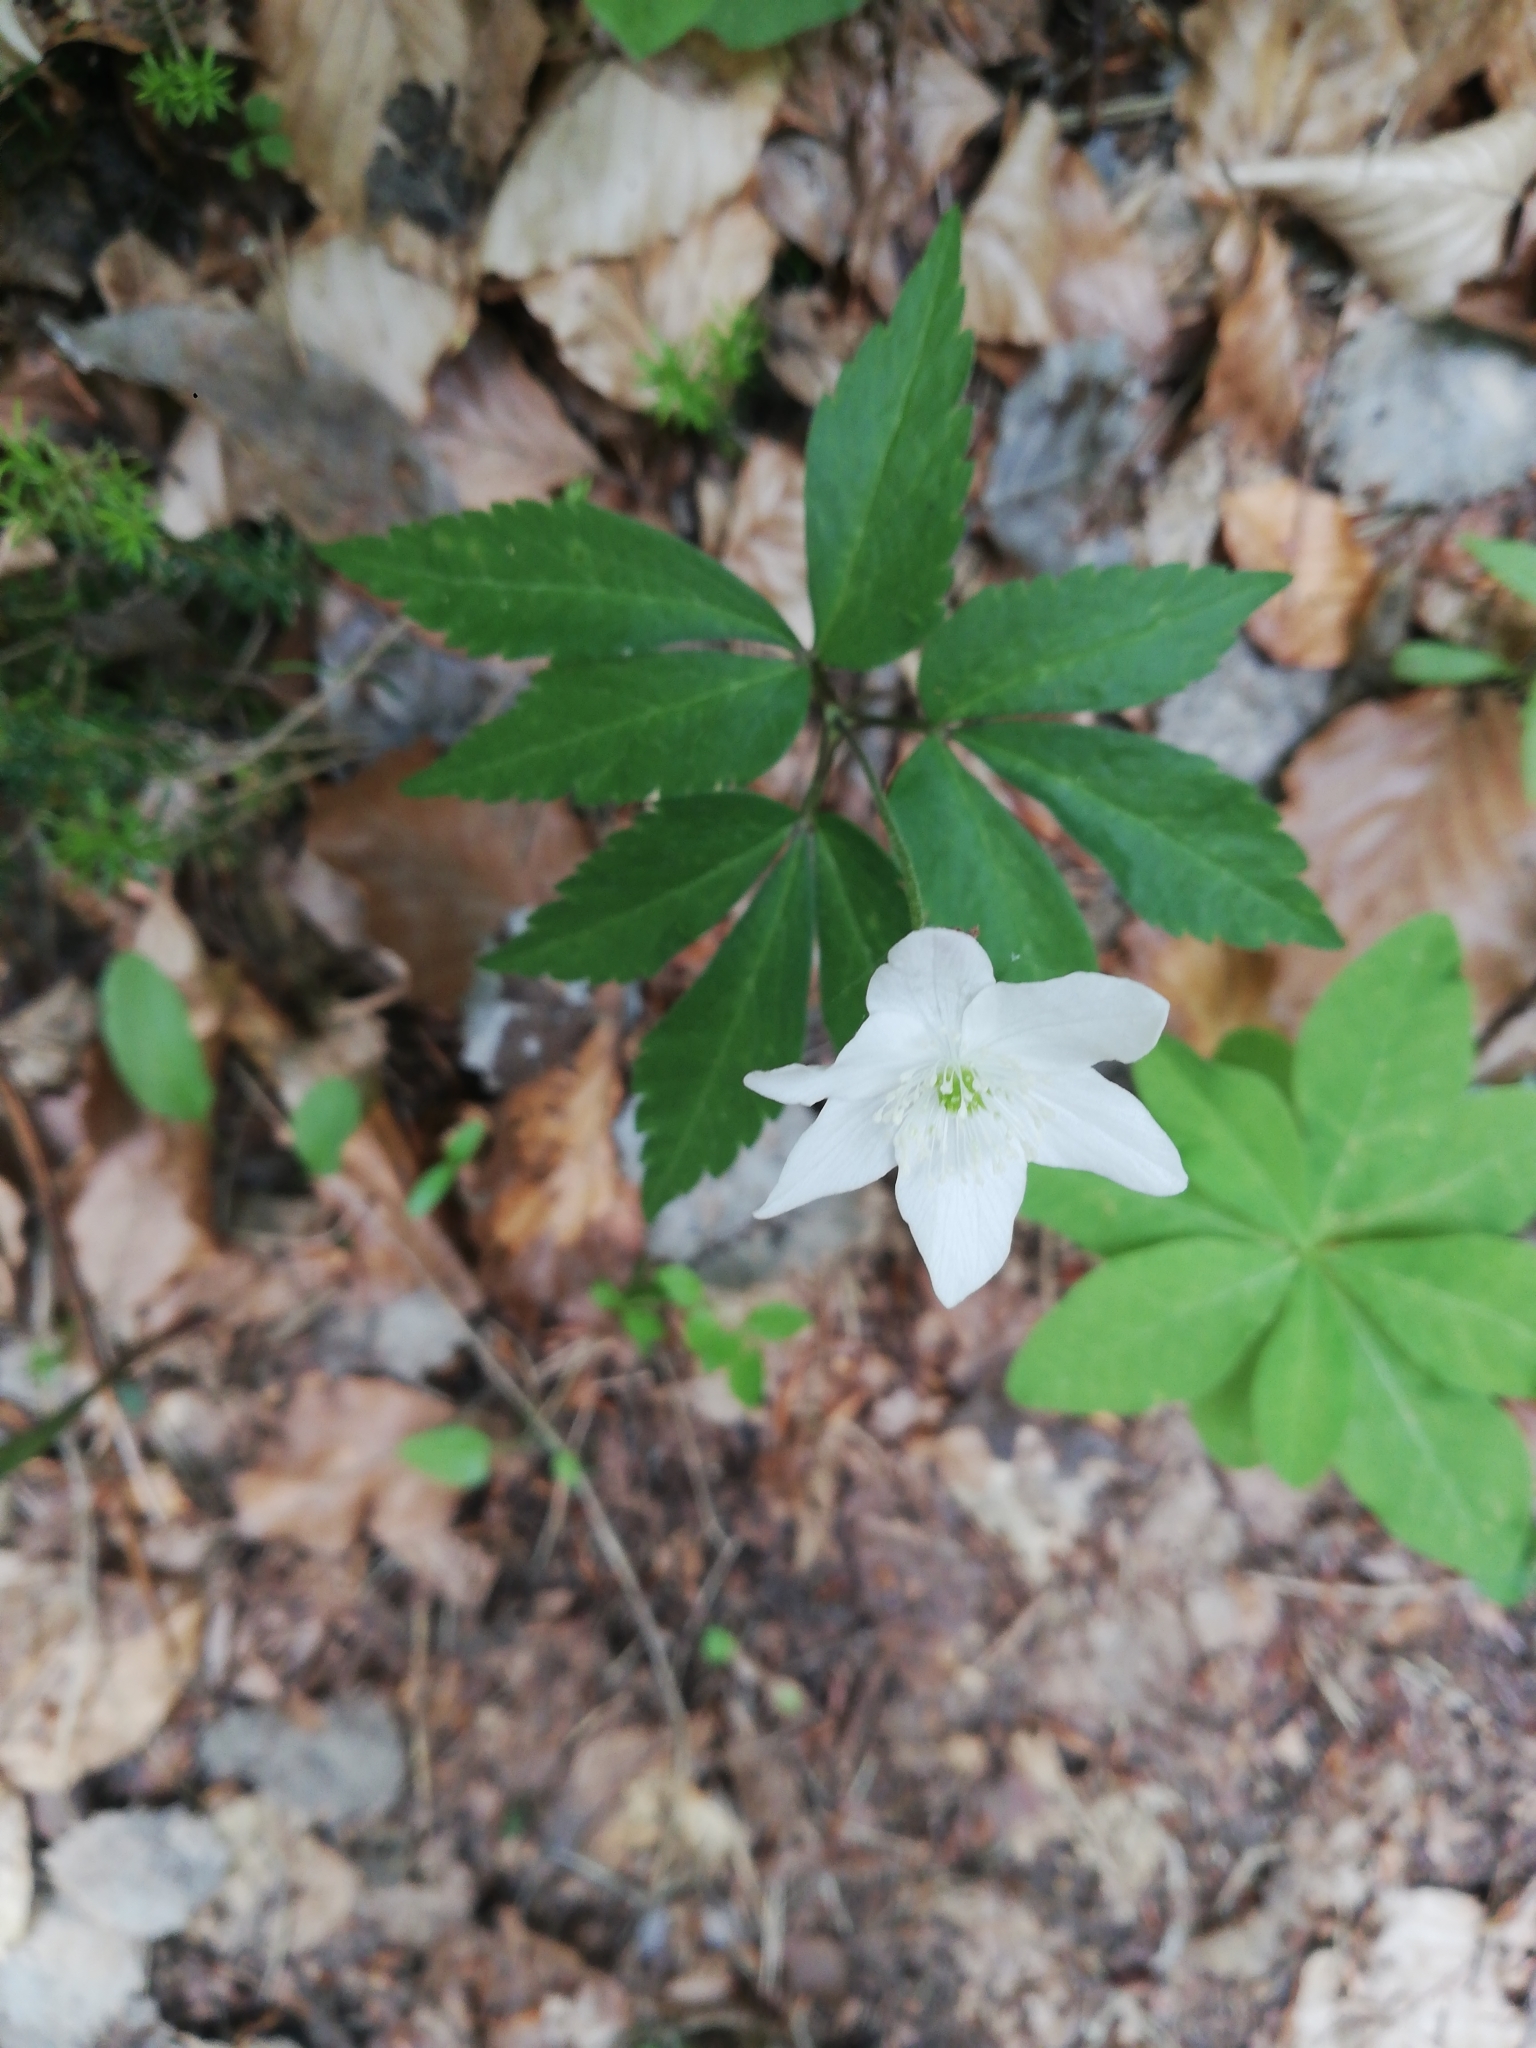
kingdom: Plantae
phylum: Tracheophyta
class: Magnoliopsida
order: Ranunculales
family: Ranunculaceae
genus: Anemone
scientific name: Anemone trifolia
